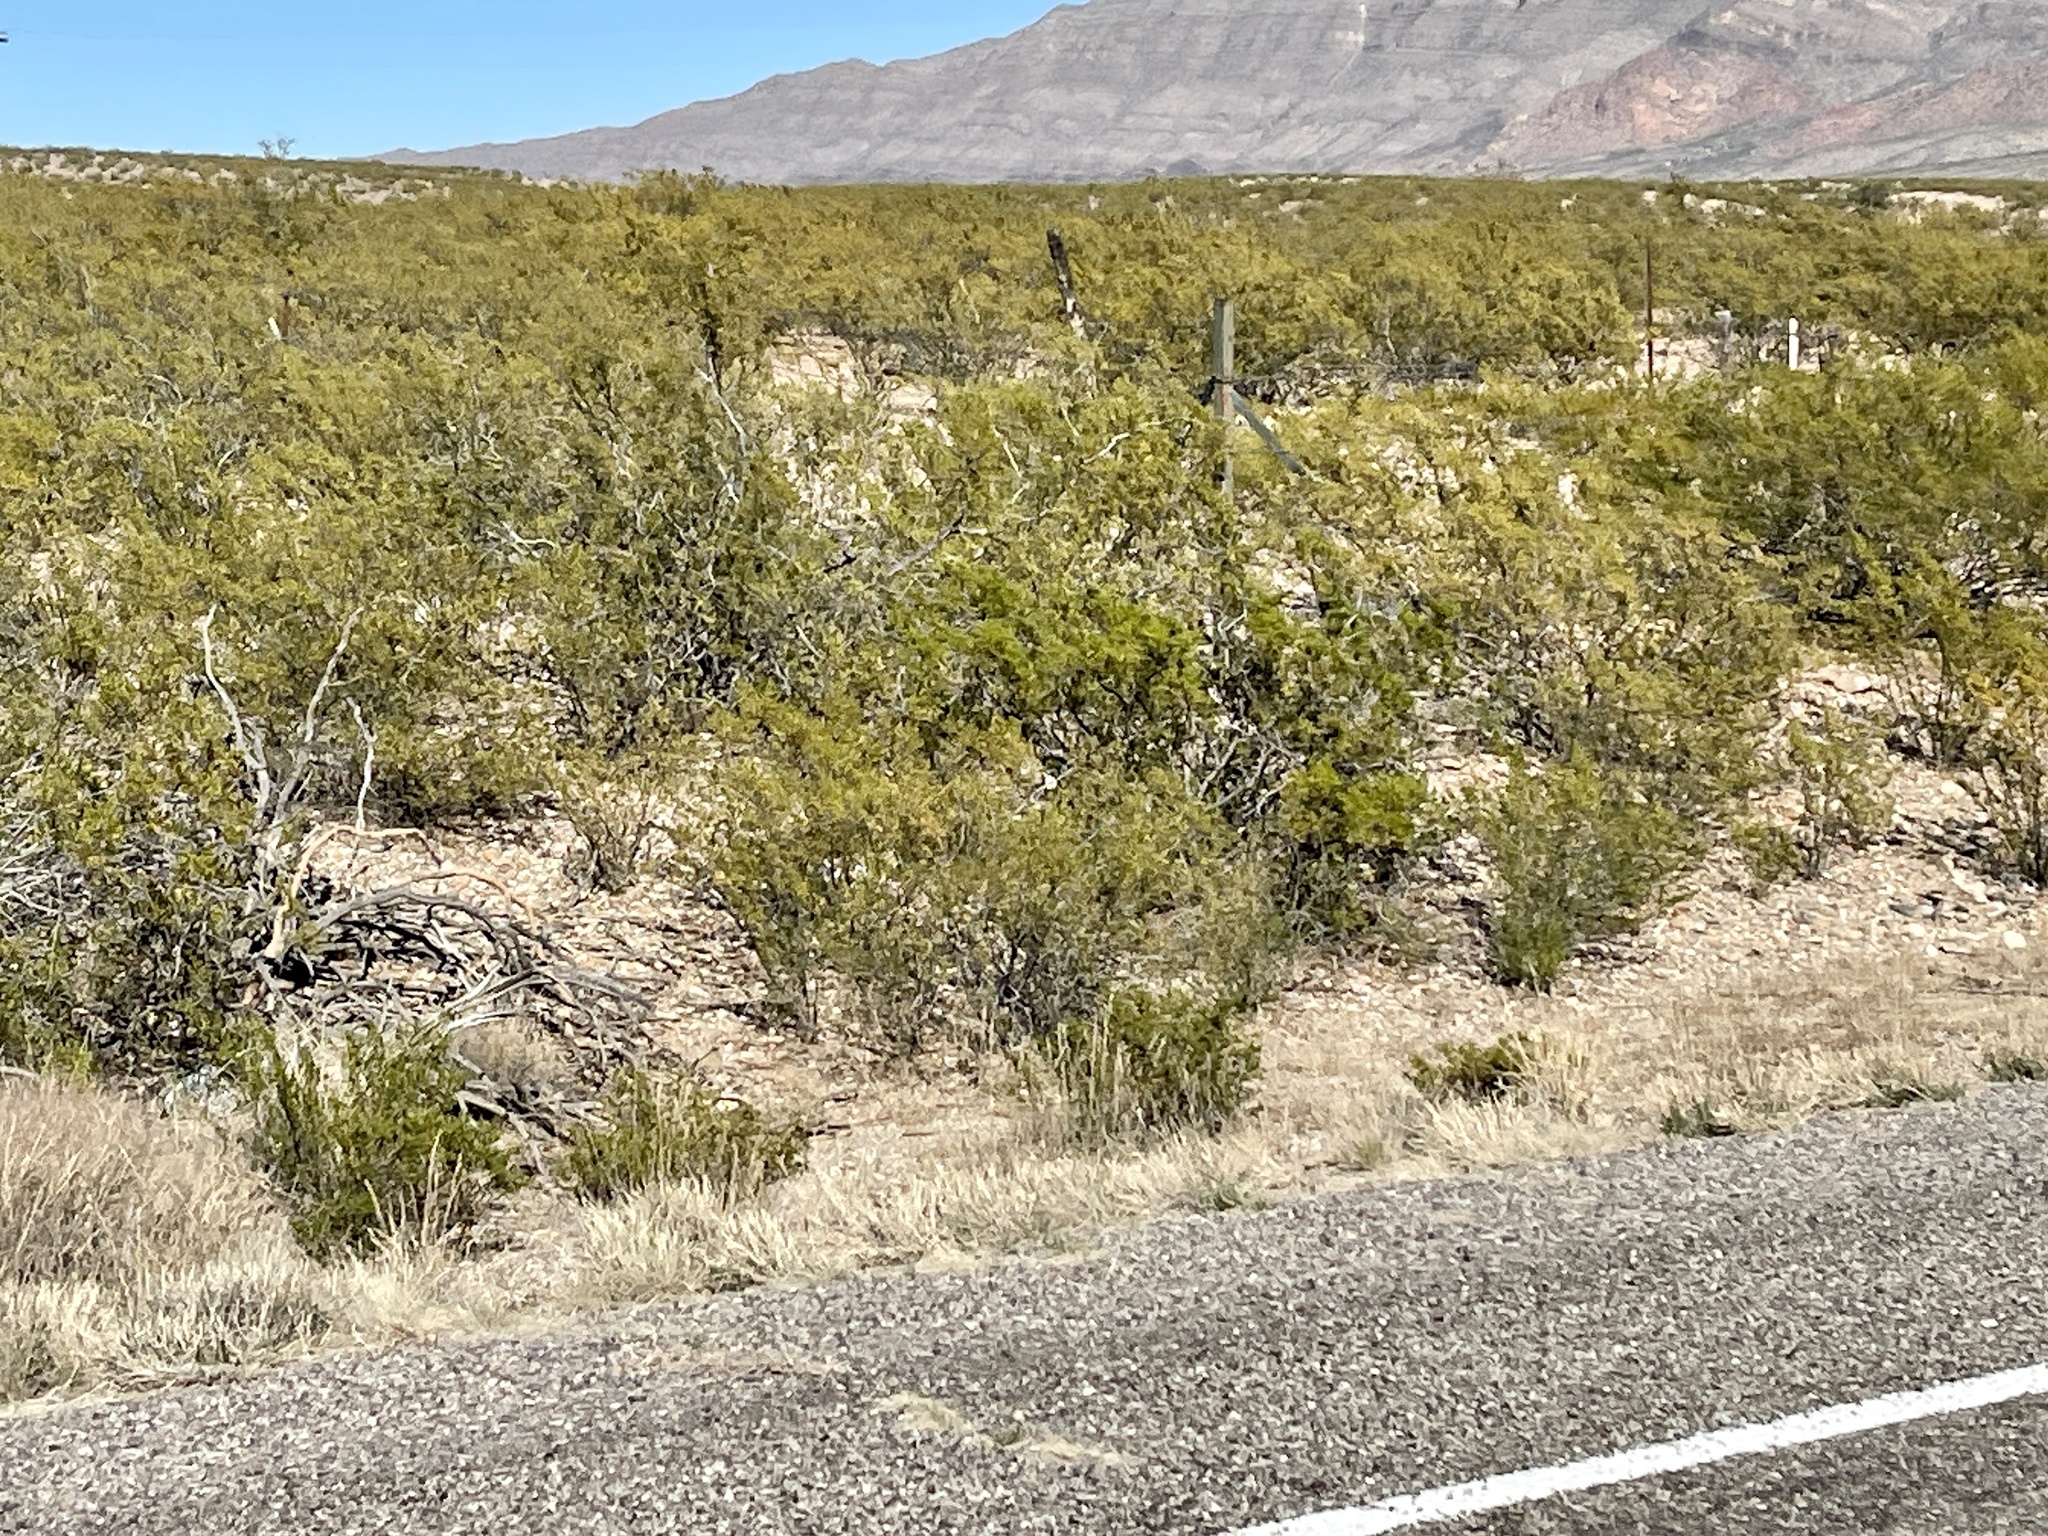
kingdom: Plantae
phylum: Tracheophyta
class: Magnoliopsida
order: Zygophyllales
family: Zygophyllaceae
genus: Larrea
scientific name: Larrea tridentata
